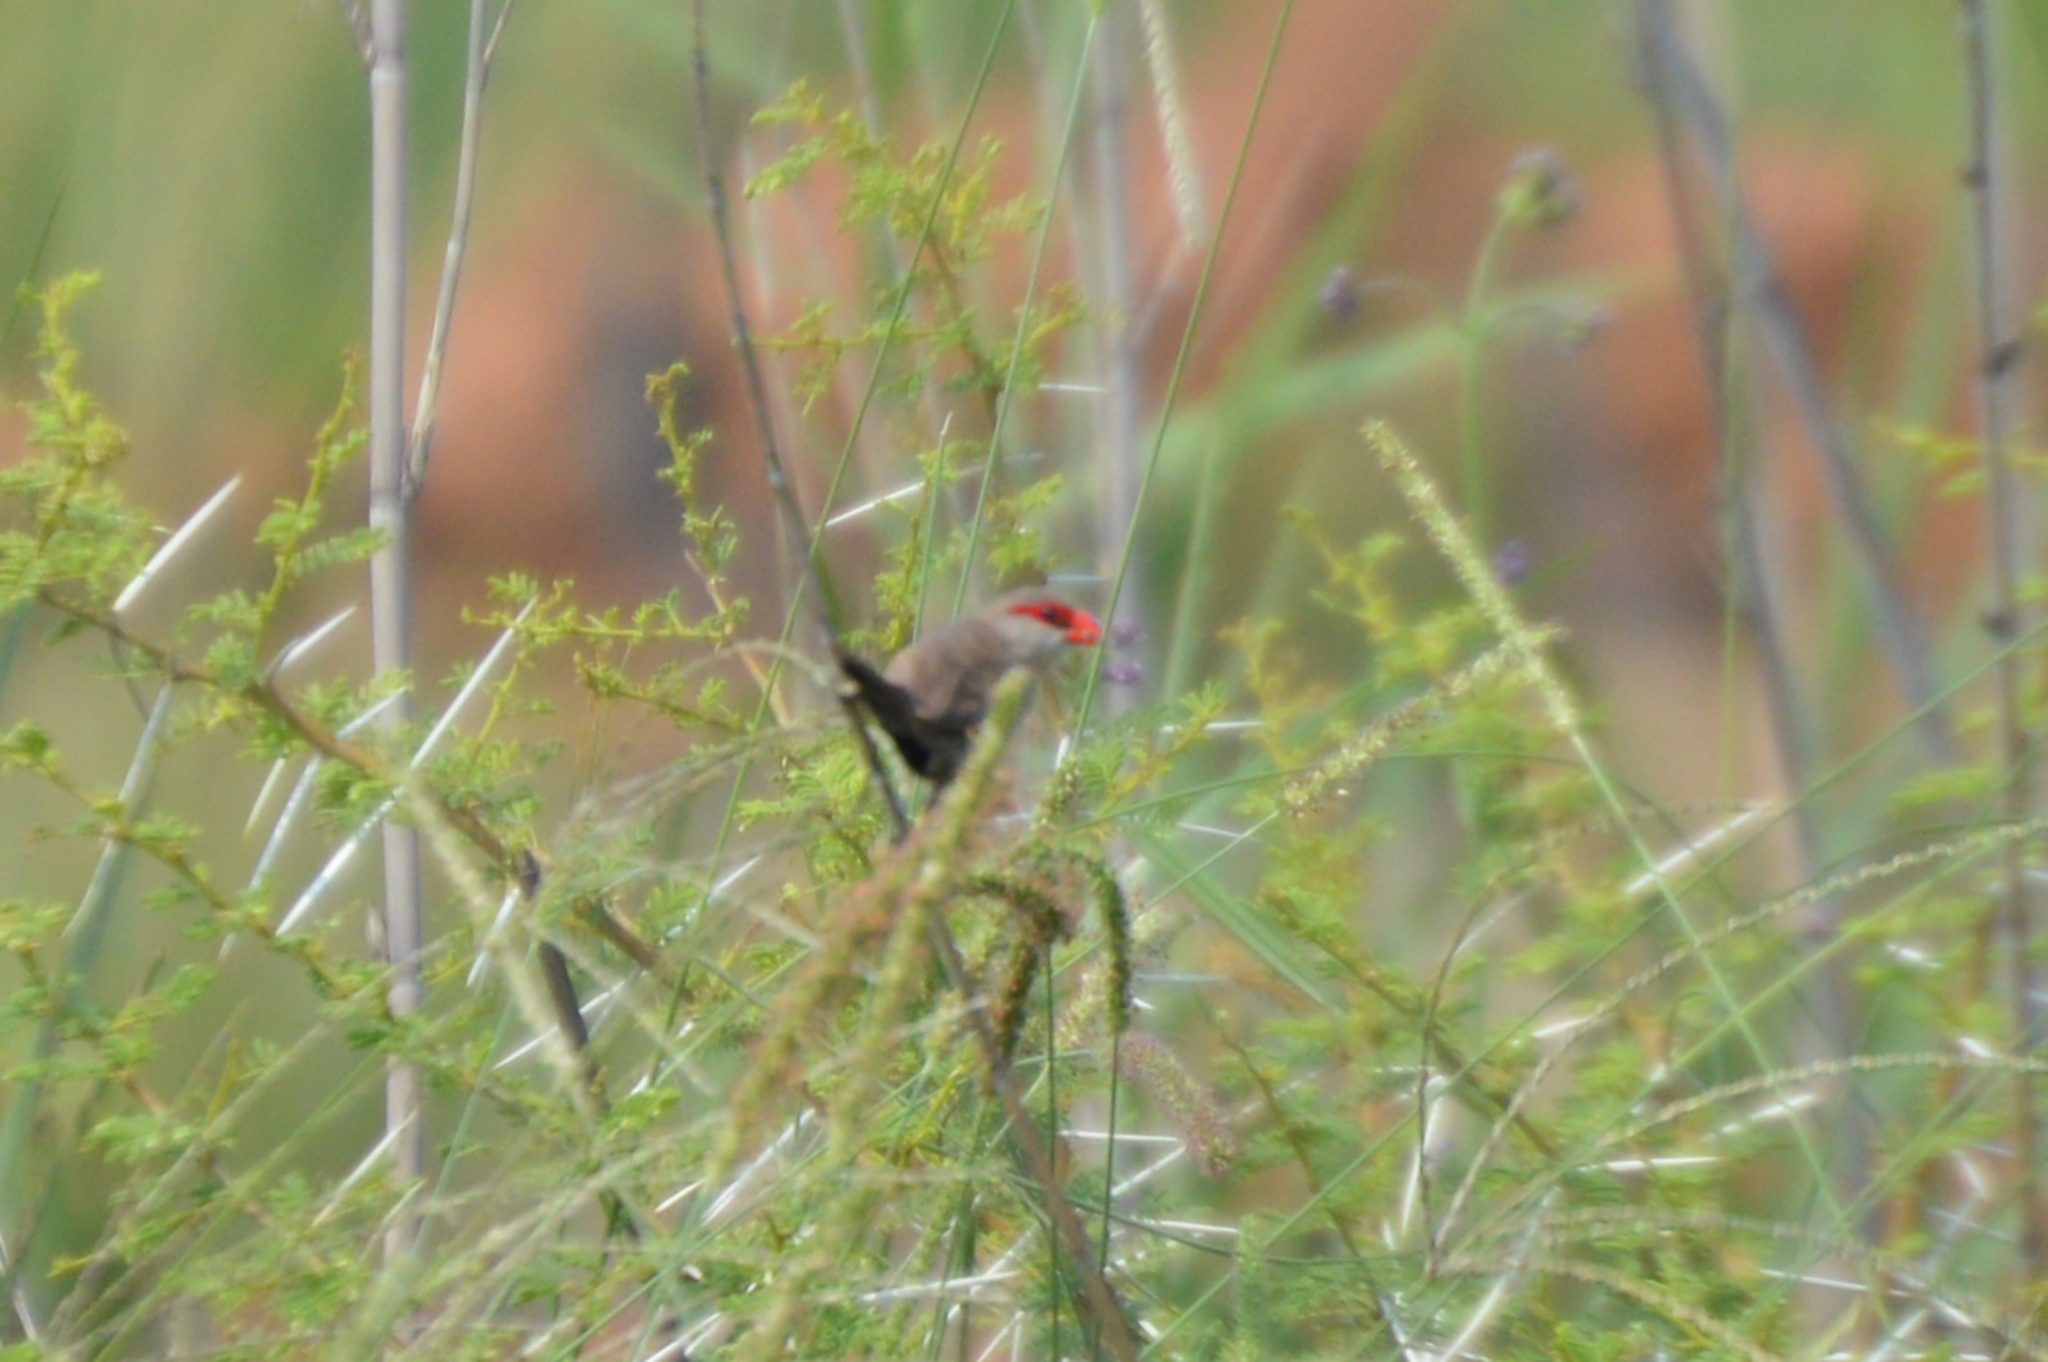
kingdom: Animalia
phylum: Chordata
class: Aves
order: Passeriformes
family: Estrildidae
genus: Estrilda
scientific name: Estrilda astrild
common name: Common waxbill
